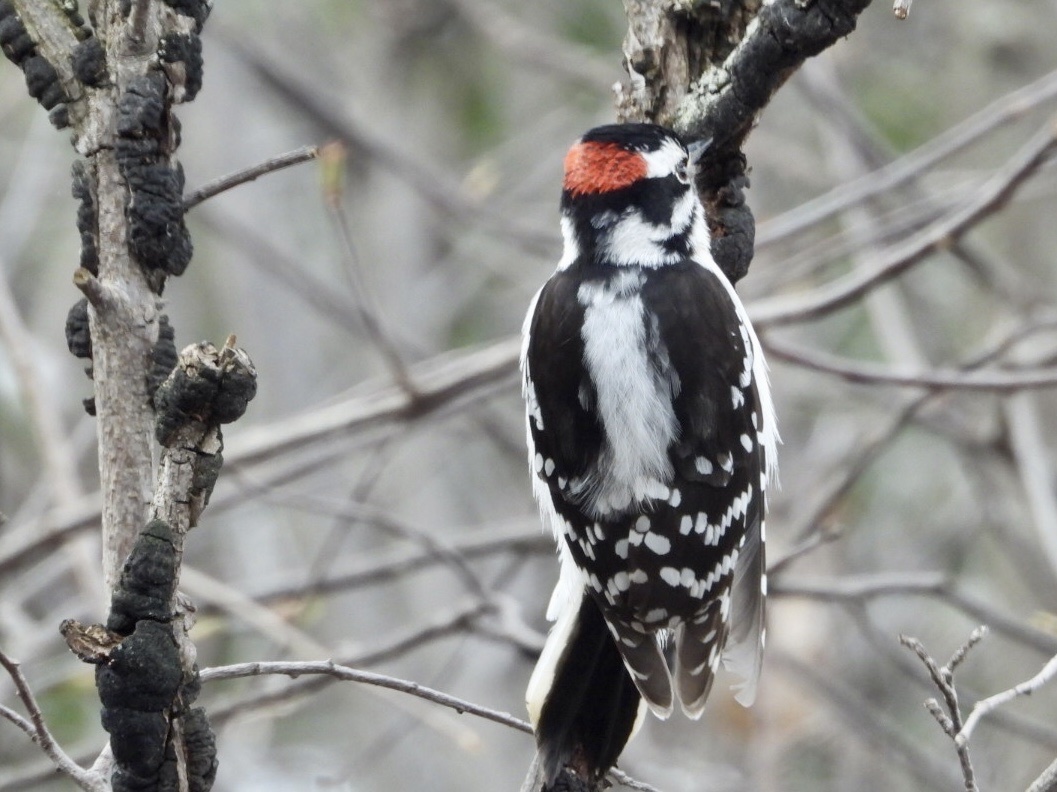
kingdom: Animalia
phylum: Chordata
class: Aves
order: Piciformes
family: Picidae
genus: Dryobates
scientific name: Dryobates pubescens
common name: Downy woodpecker
